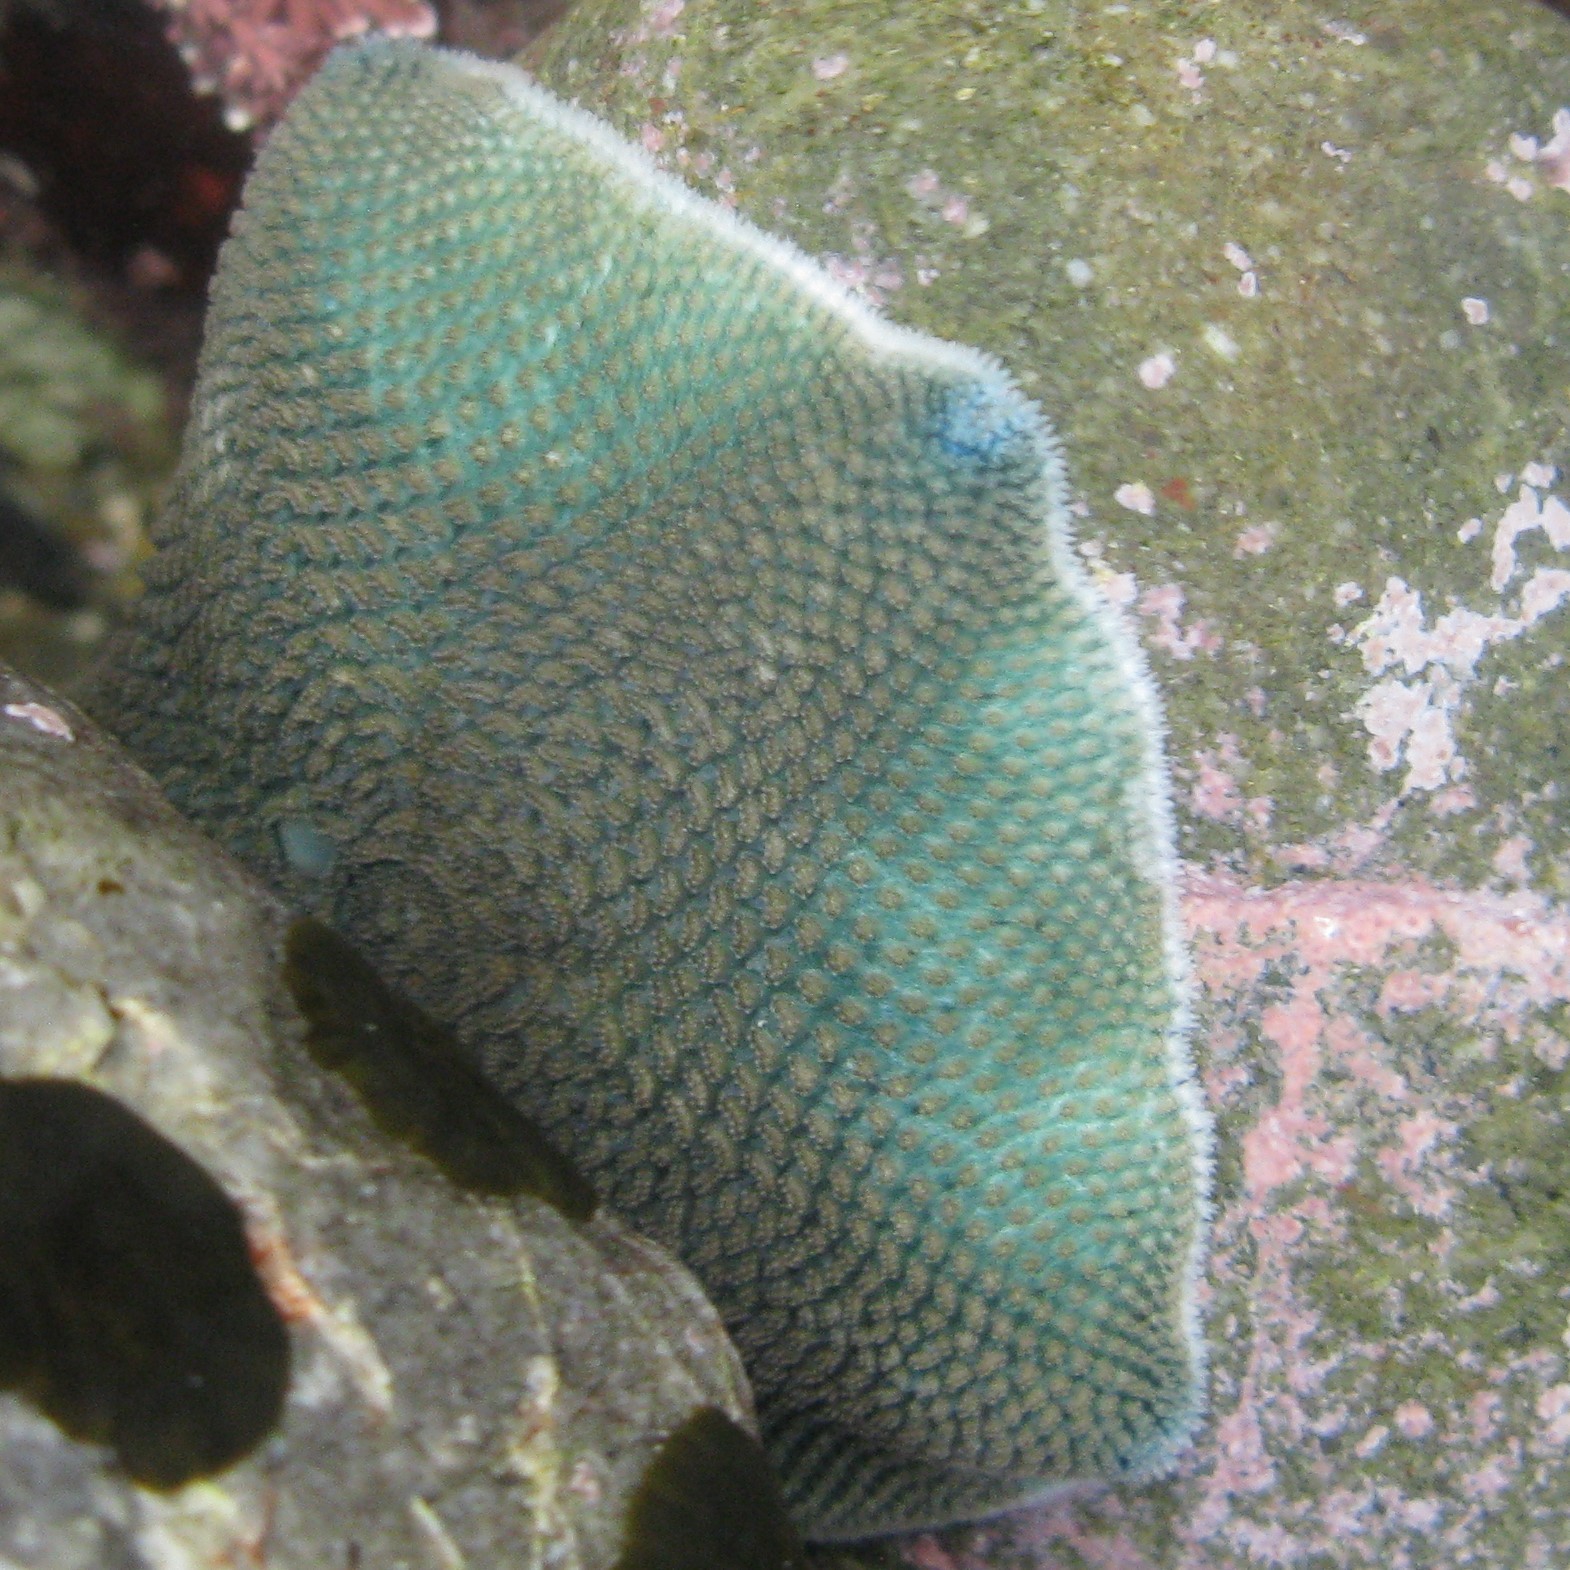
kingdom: Animalia
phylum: Echinodermata
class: Asteroidea
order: Valvatida
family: Asterinidae
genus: Patiriella
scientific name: Patiriella regularis
